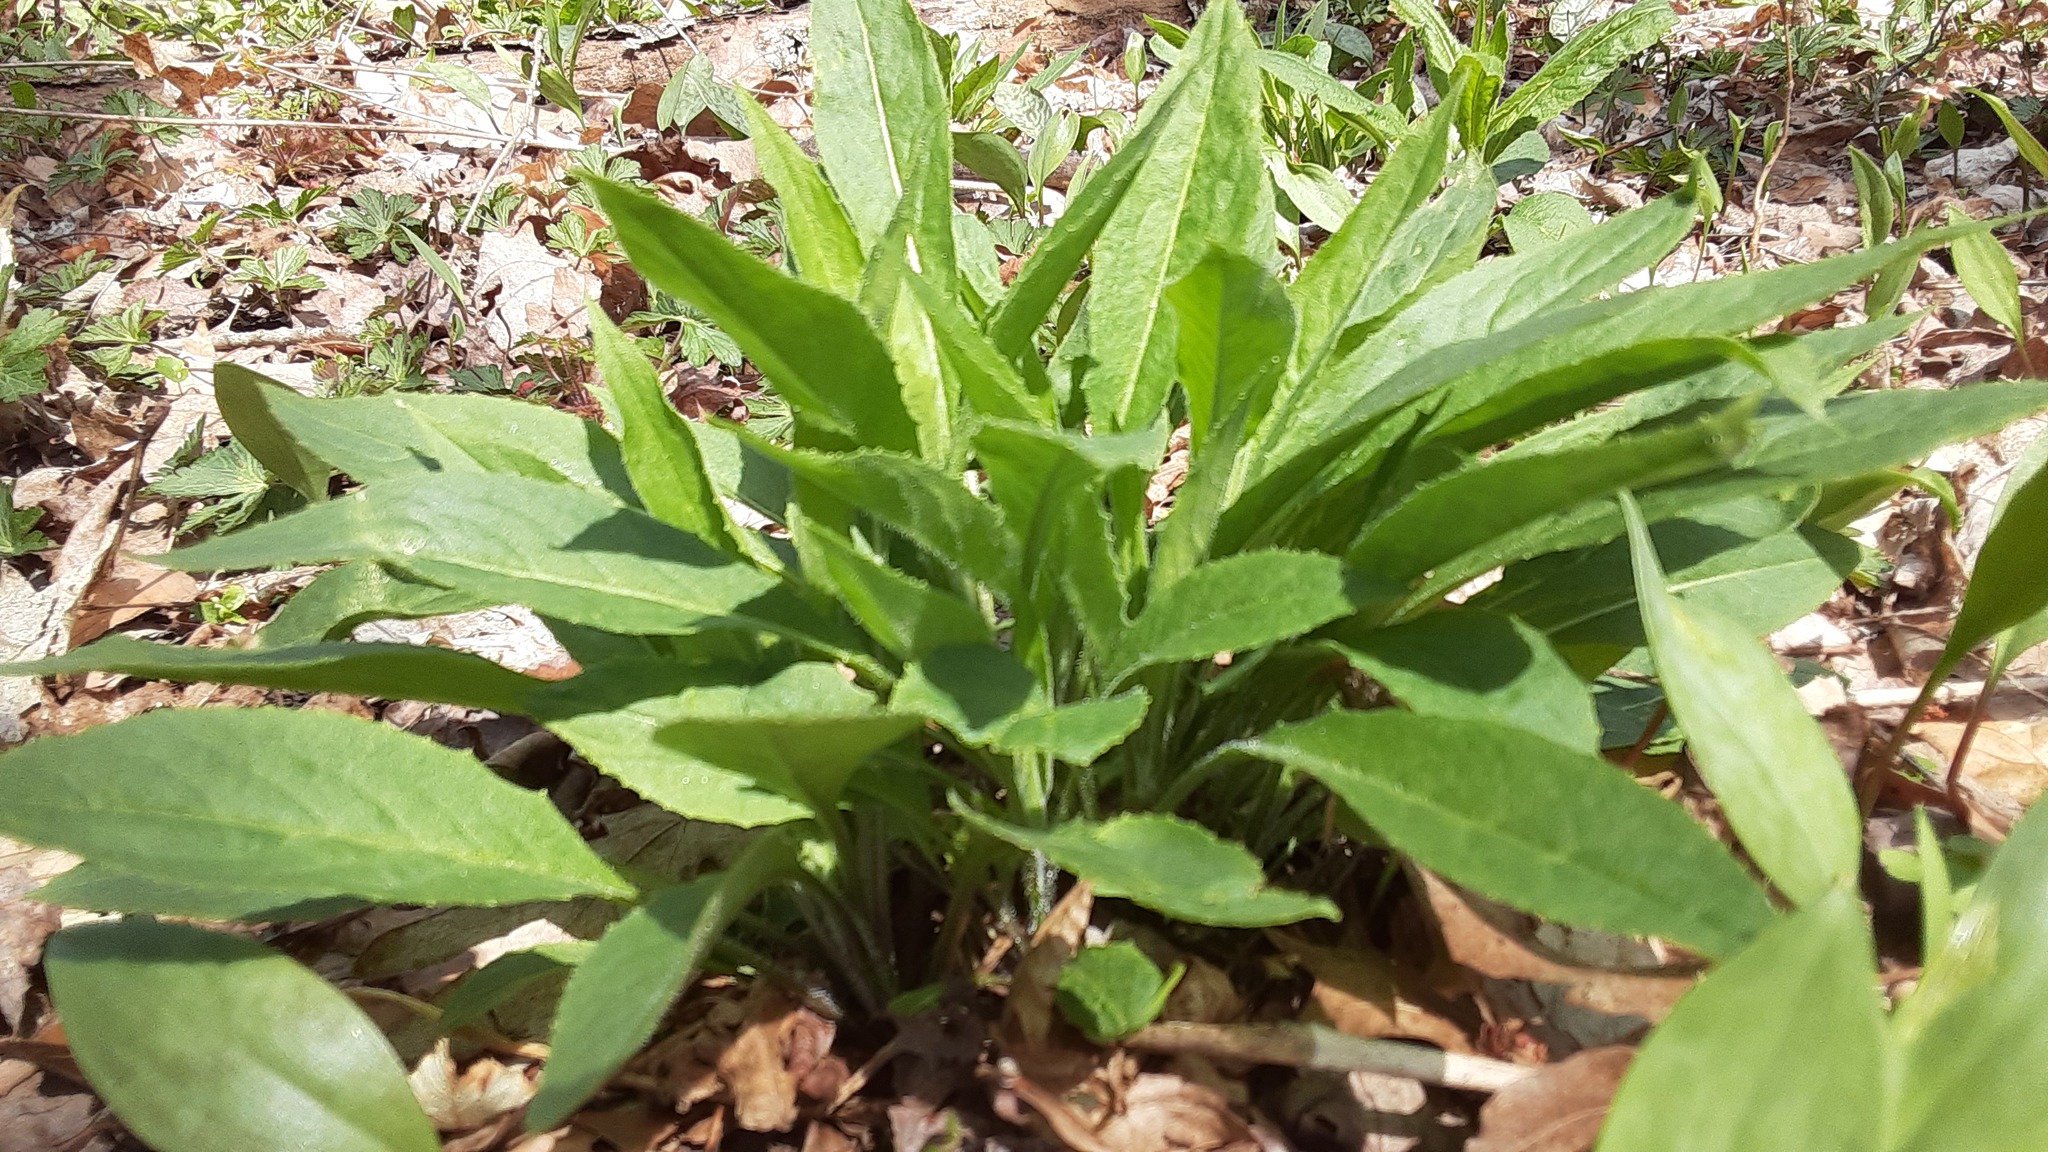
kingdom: Plantae
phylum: Tracheophyta
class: Magnoliopsida
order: Brassicales
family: Brassicaceae
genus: Hesperis
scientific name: Hesperis matronalis
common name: Dame's-violet
